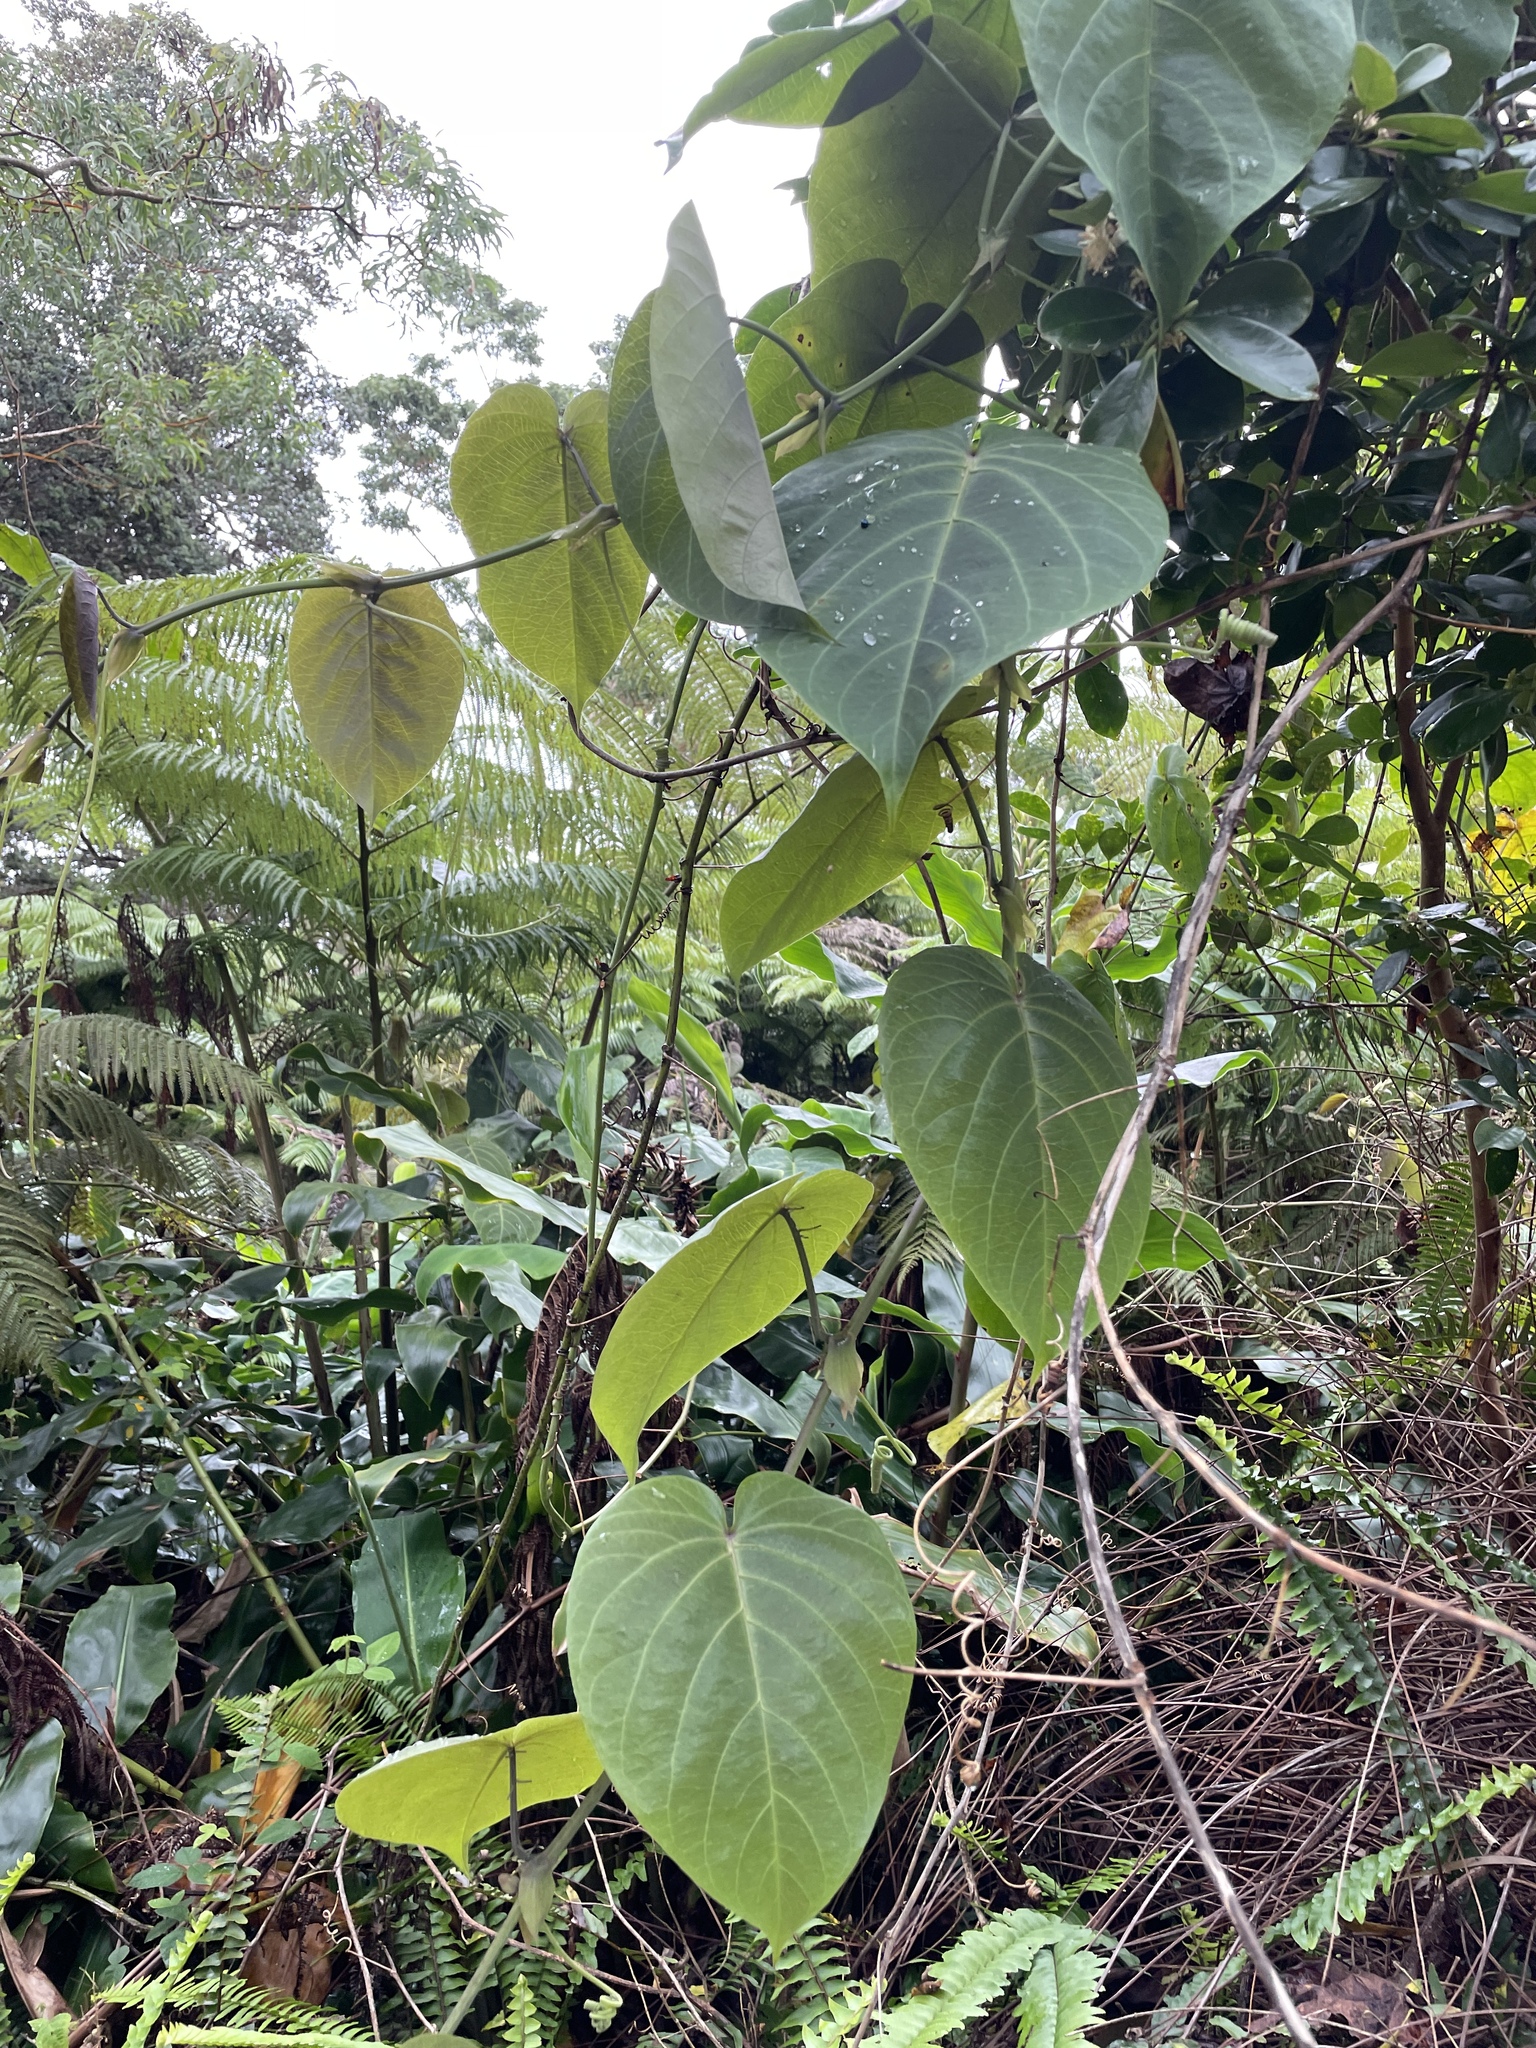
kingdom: Plantae
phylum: Tracheophyta
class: Magnoliopsida
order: Malpighiales
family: Passifloraceae
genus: Passiflora
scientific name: Passiflora ligularis
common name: Sweet granadilla
